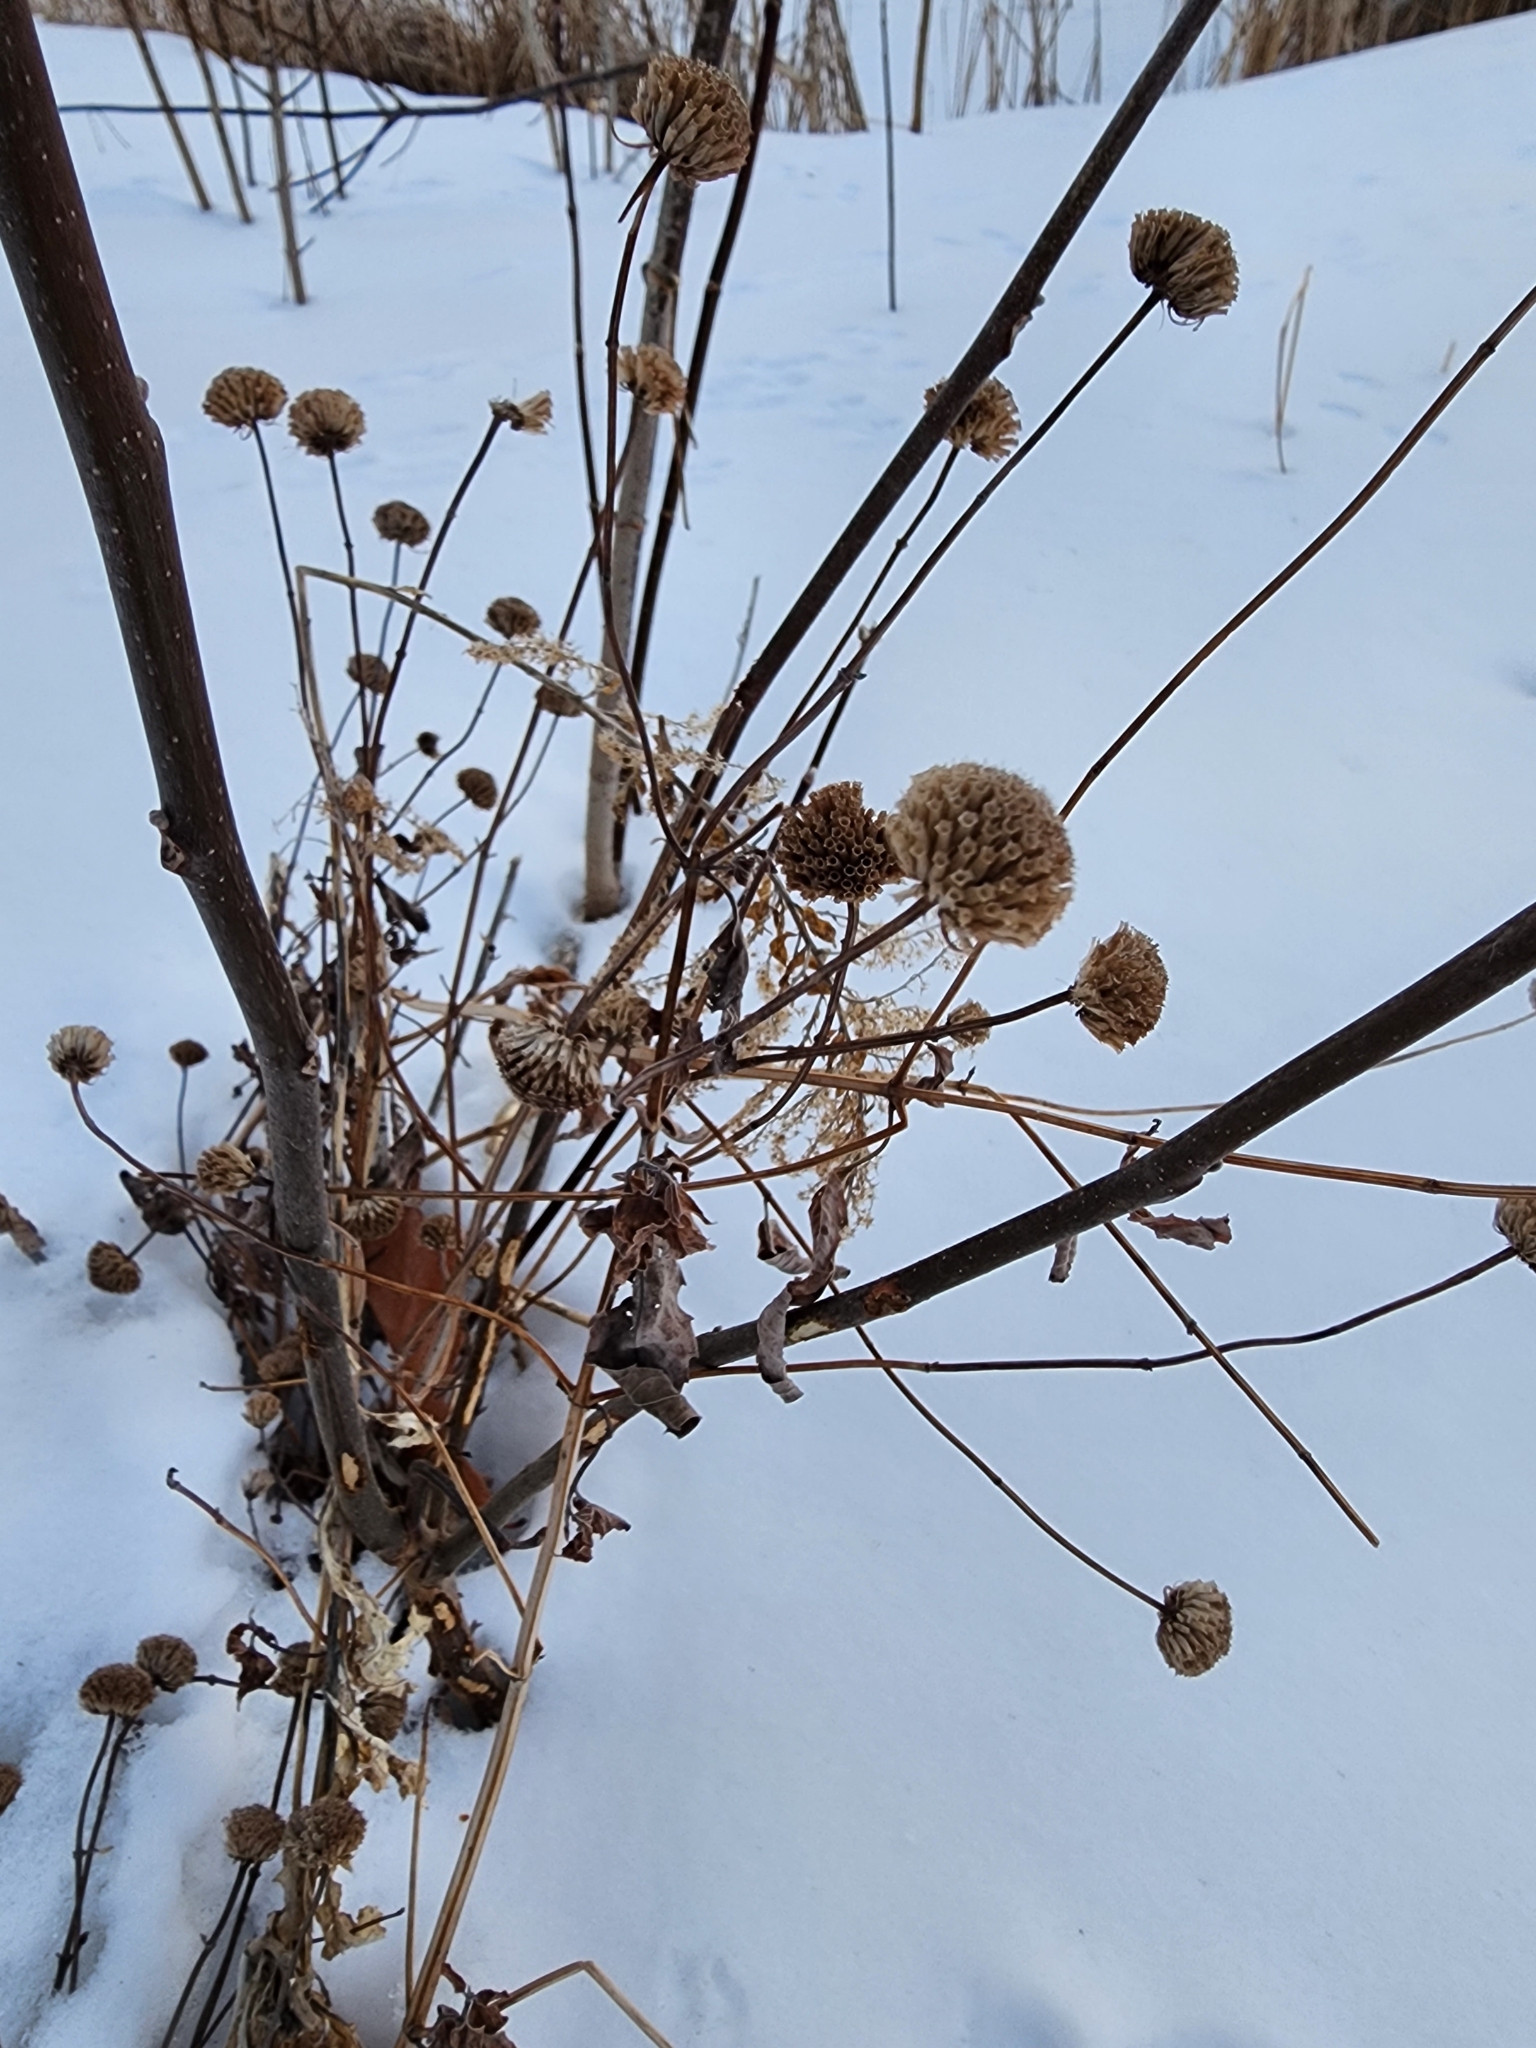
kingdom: Plantae
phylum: Tracheophyta
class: Magnoliopsida
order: Lamiales
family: Lamiaceae
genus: Monarda
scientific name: Monarda fistulosa
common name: Purple beebalm
